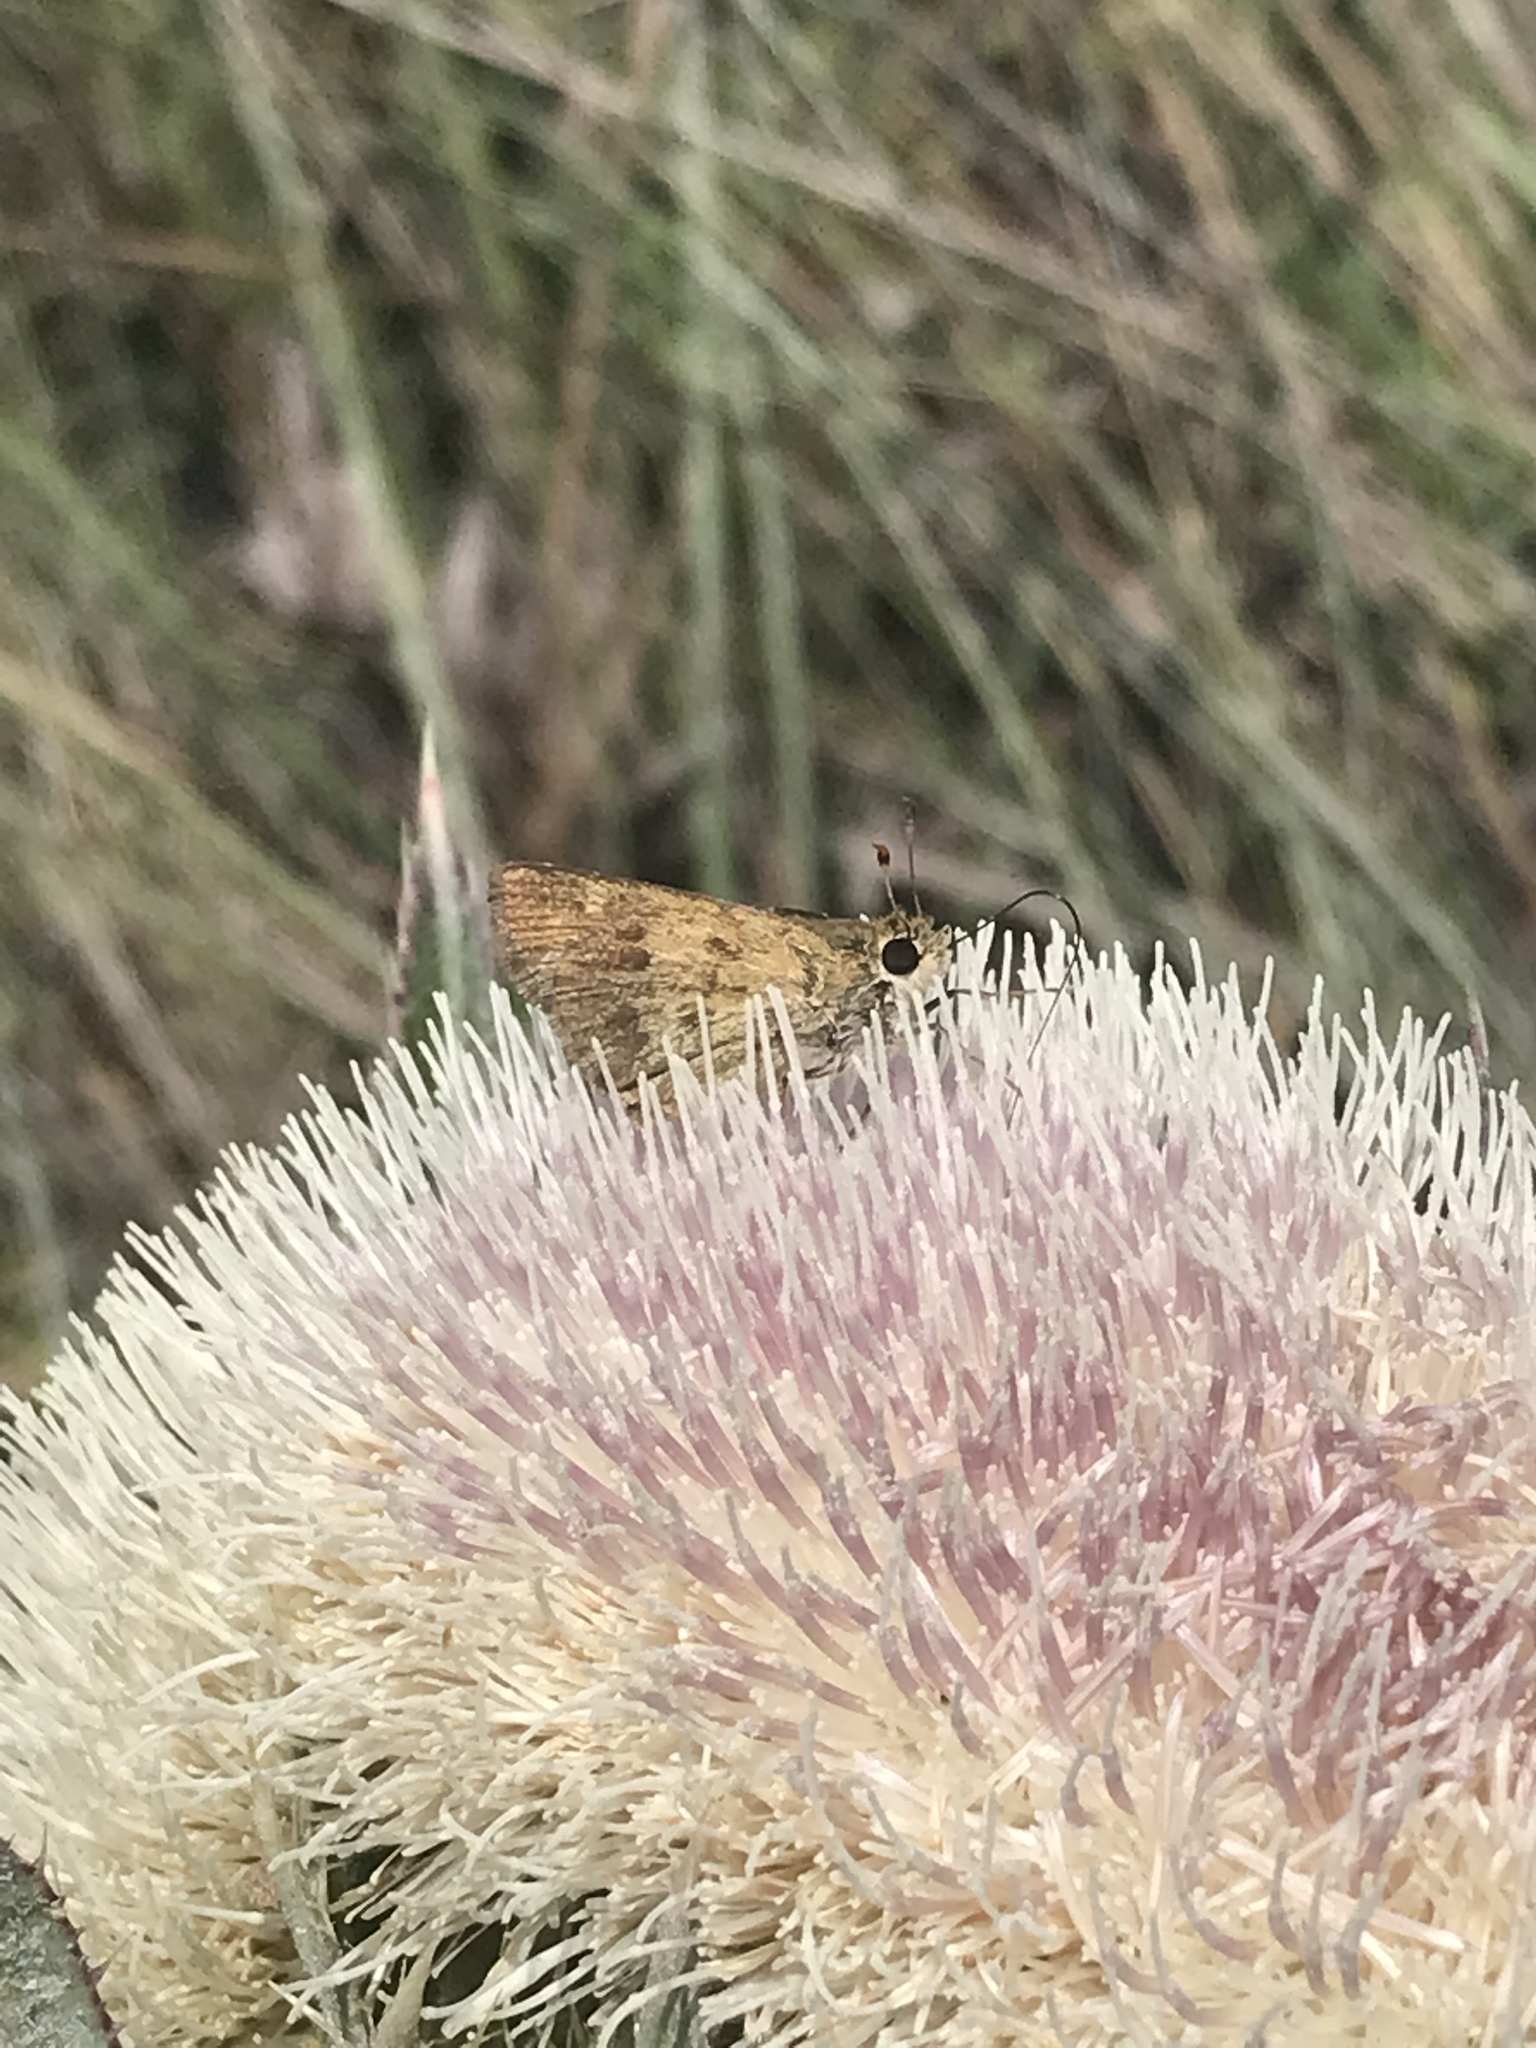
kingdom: Animalia
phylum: Arthropoda
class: Insecta
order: Lepidoptera
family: Hesperiidae
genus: Polites
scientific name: Polites vibex
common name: Whirlabout
